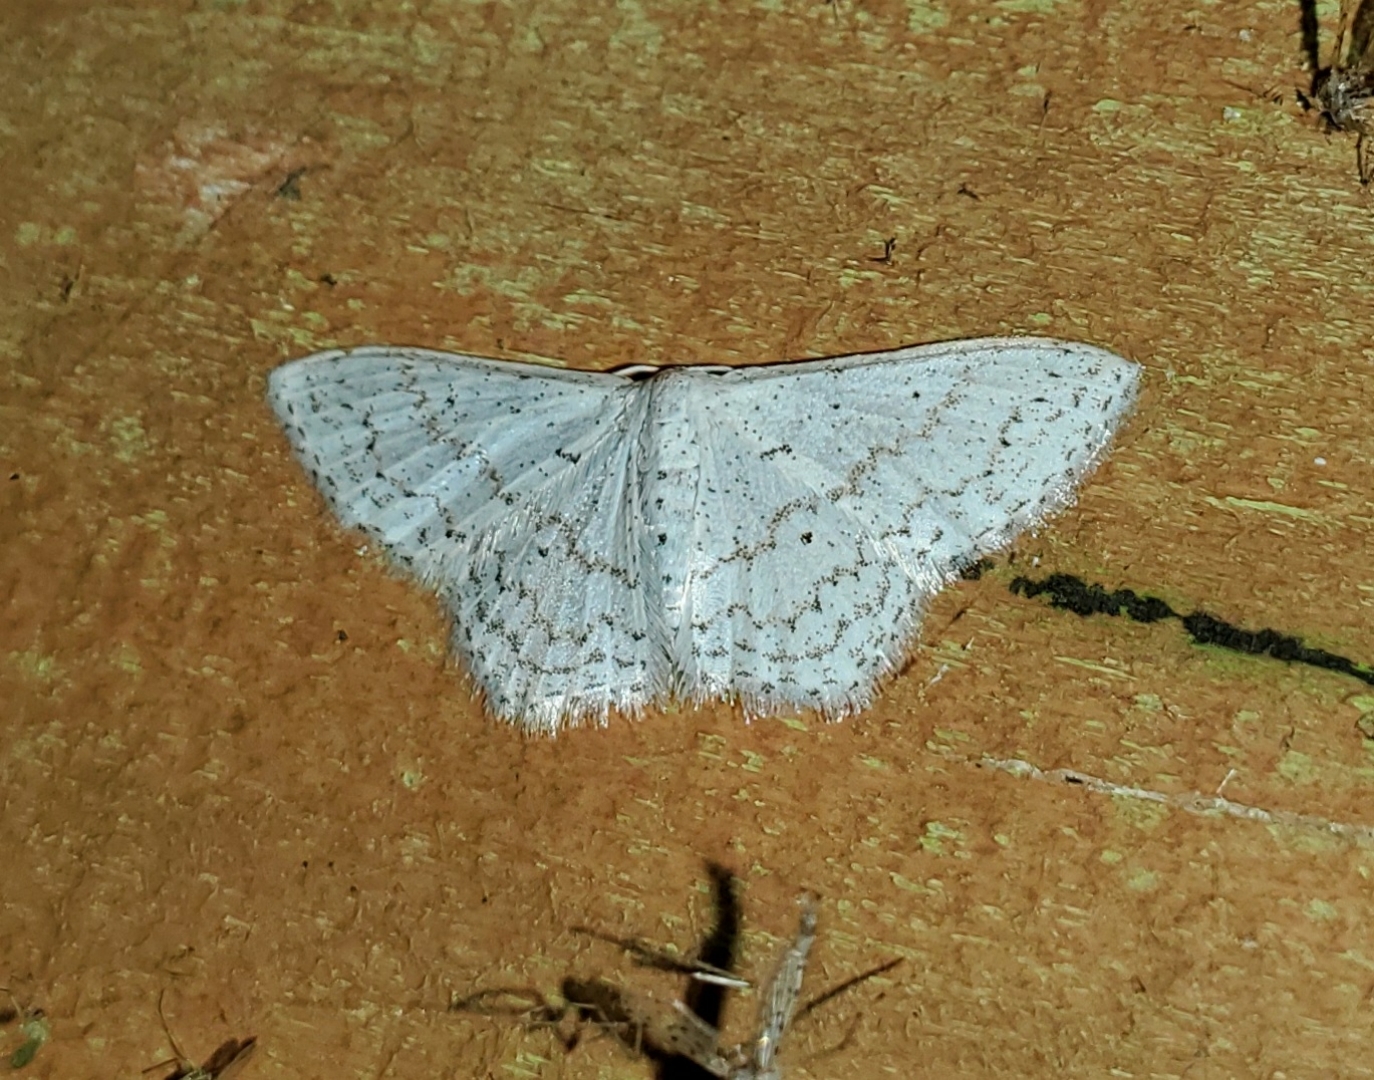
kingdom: Animalia
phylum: Arthropoda
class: Insecta
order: Lepidoptera
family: Geometridae
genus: Idaea
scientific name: Idaea tacturata
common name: Dot-lined wave
